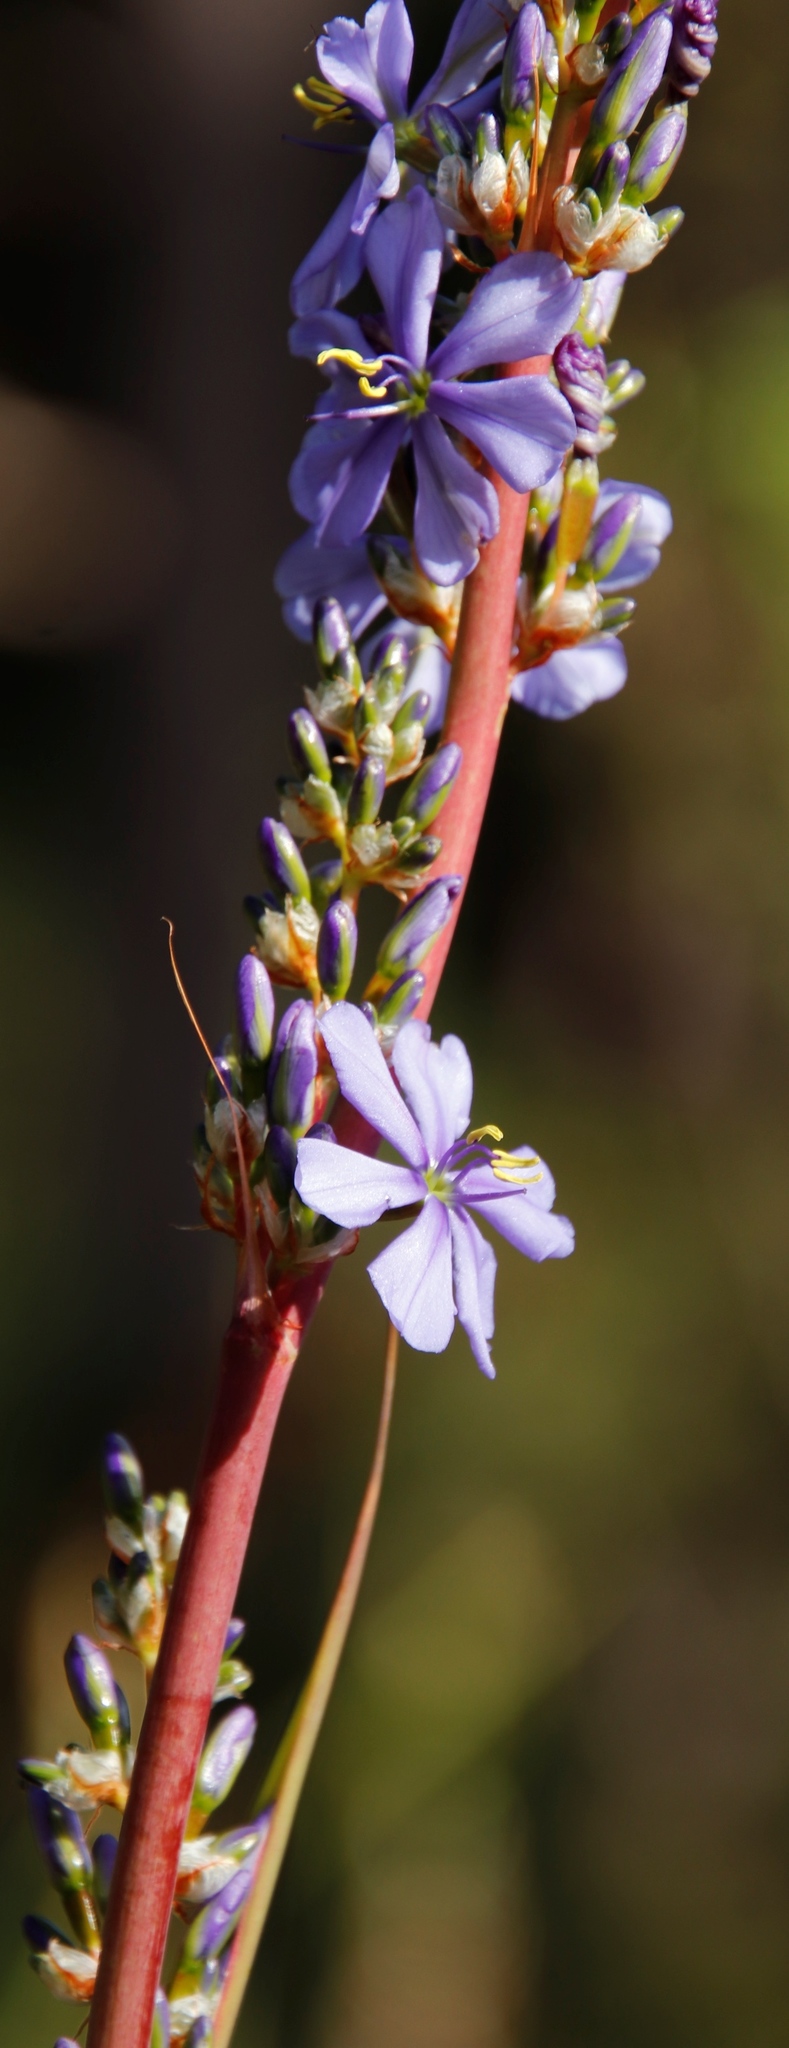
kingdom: Plantae
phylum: Tracheophyta
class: Liliopsida
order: Asparagales
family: Iridaceae
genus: Aristea
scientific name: Aristea capitata
